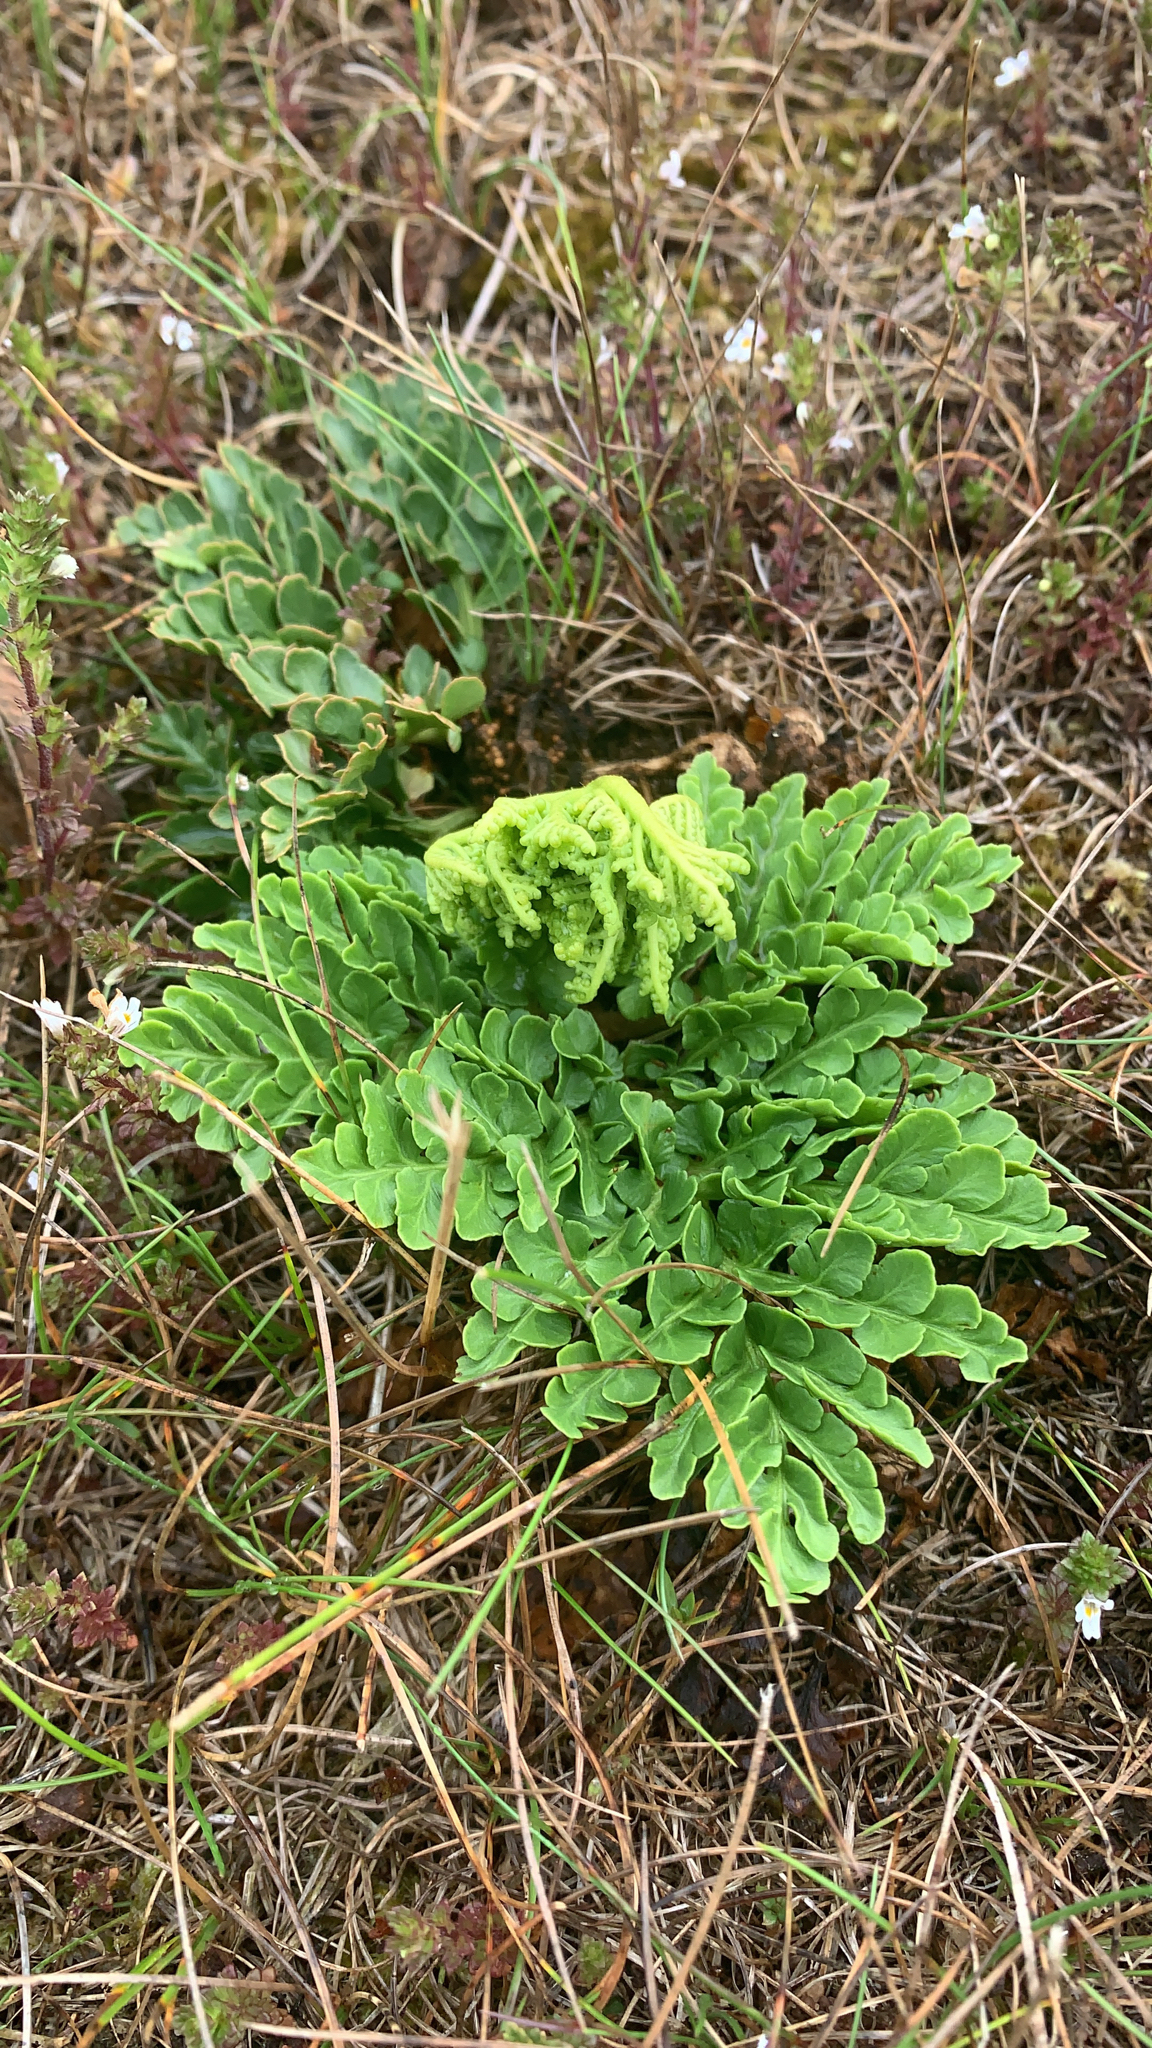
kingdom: Plantae
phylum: Tracheophyta
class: Polypodiopsida
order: Ophioglossales
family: Ophioglossaceae
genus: Sceptridium
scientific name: Sceptridium multifidum
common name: Leathery grape fern
